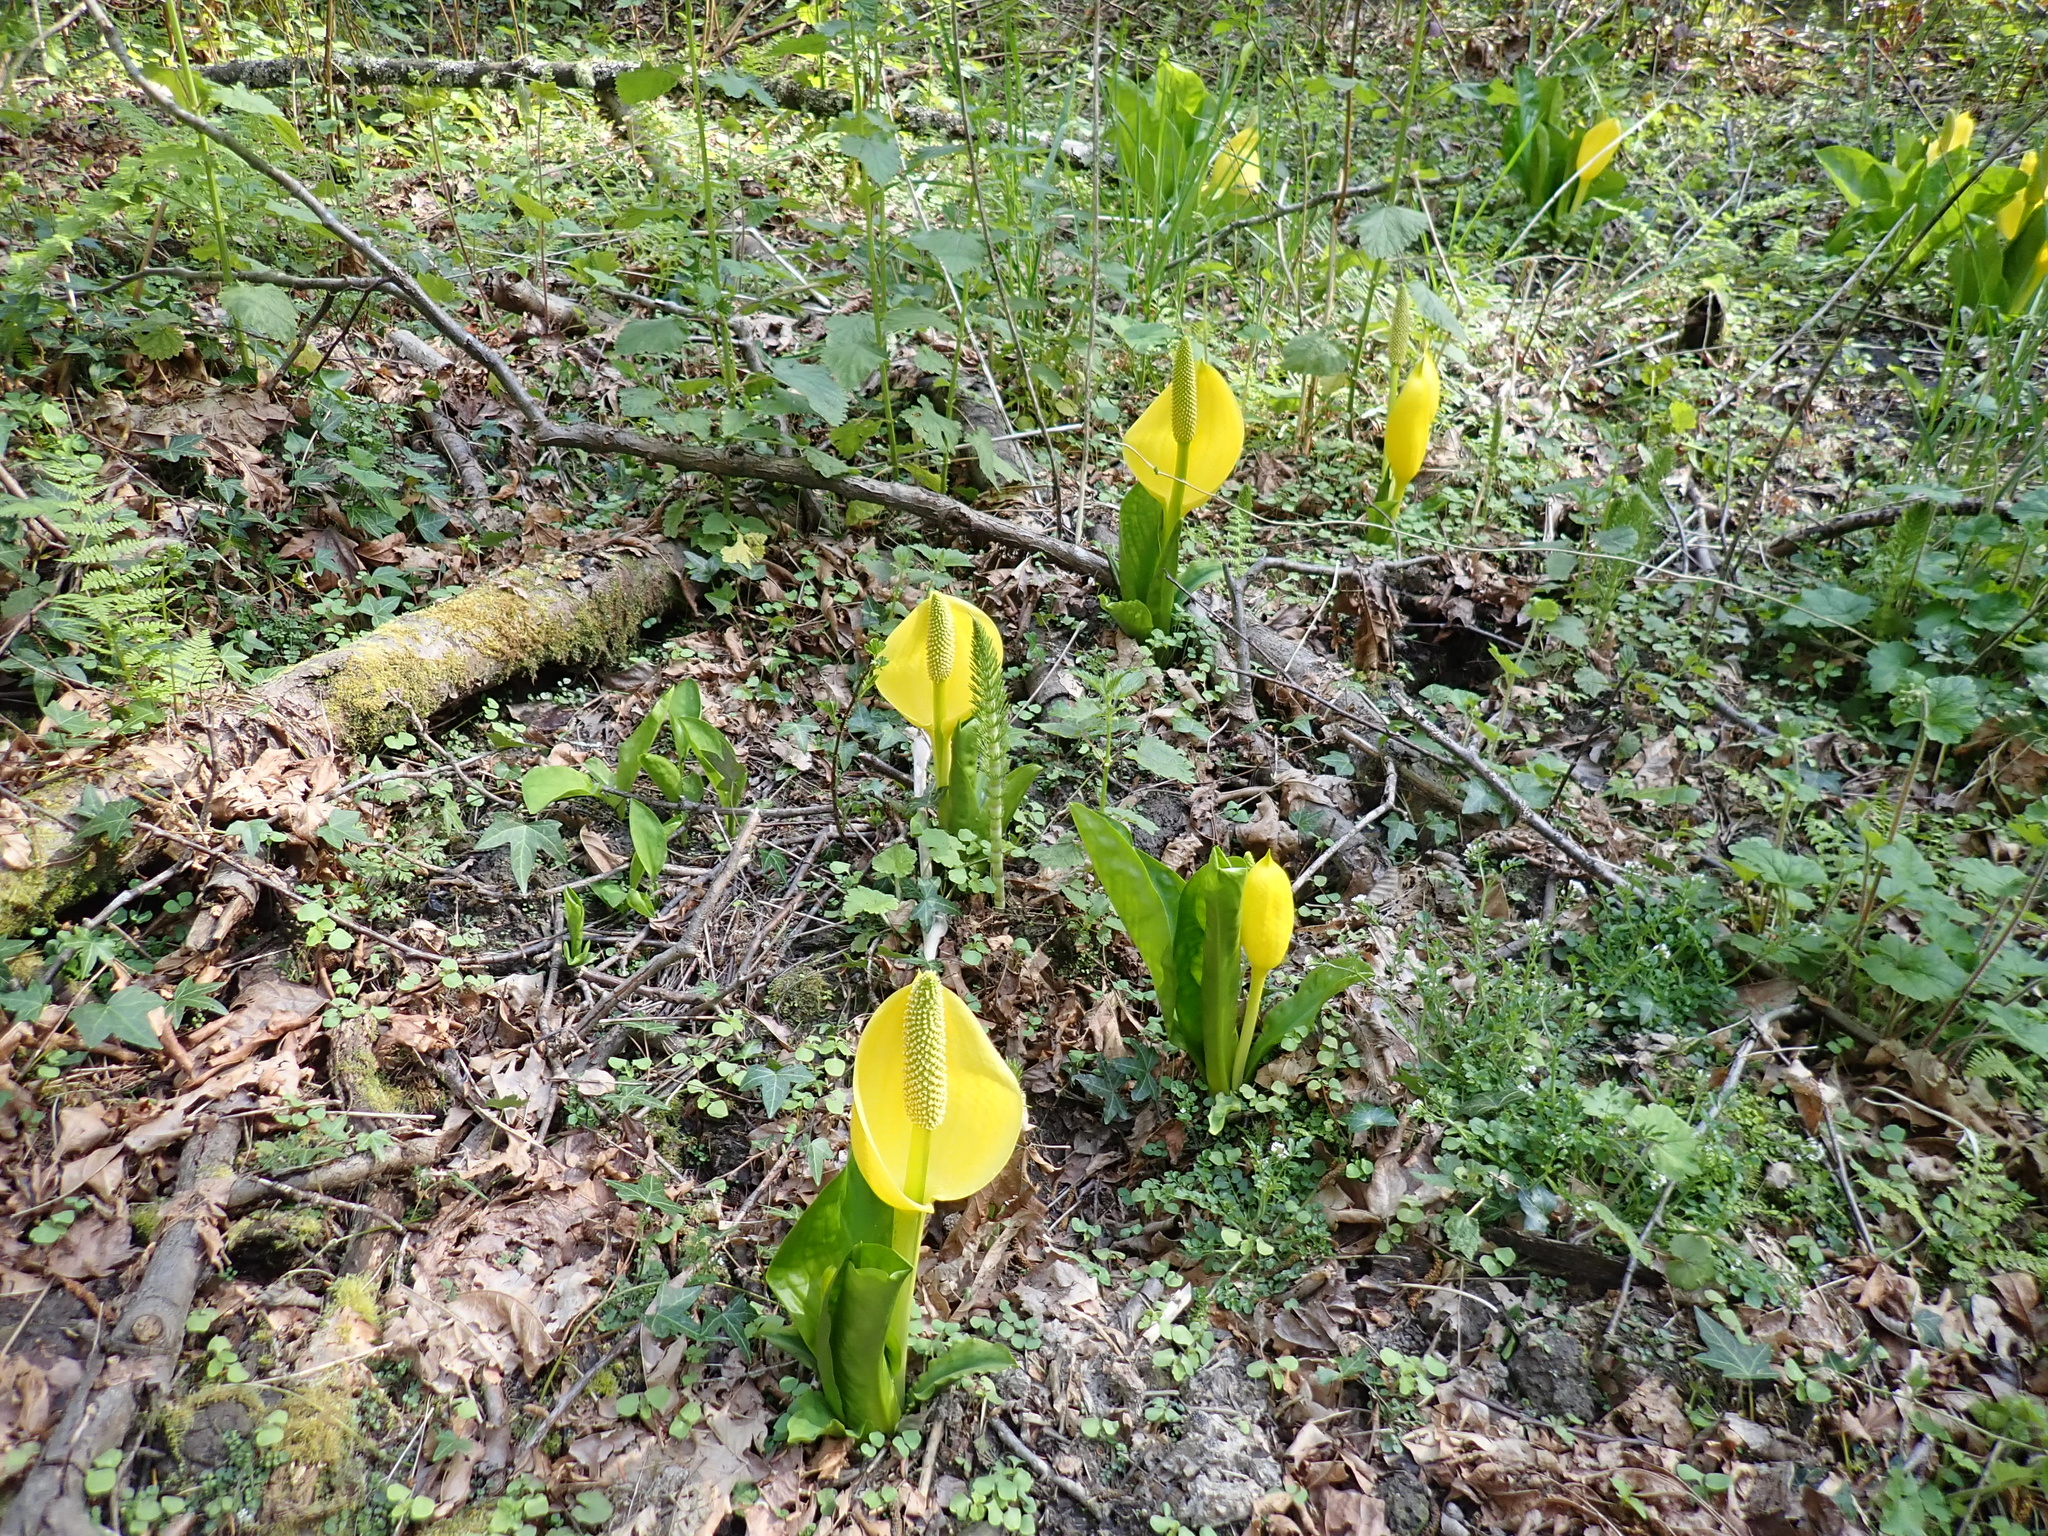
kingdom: Plantae
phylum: Tracheophyta
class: Liliopsida
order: Alismatales
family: Araceae
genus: Lysichiton
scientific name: Lysichiton americanus
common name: American skunk cabbage
